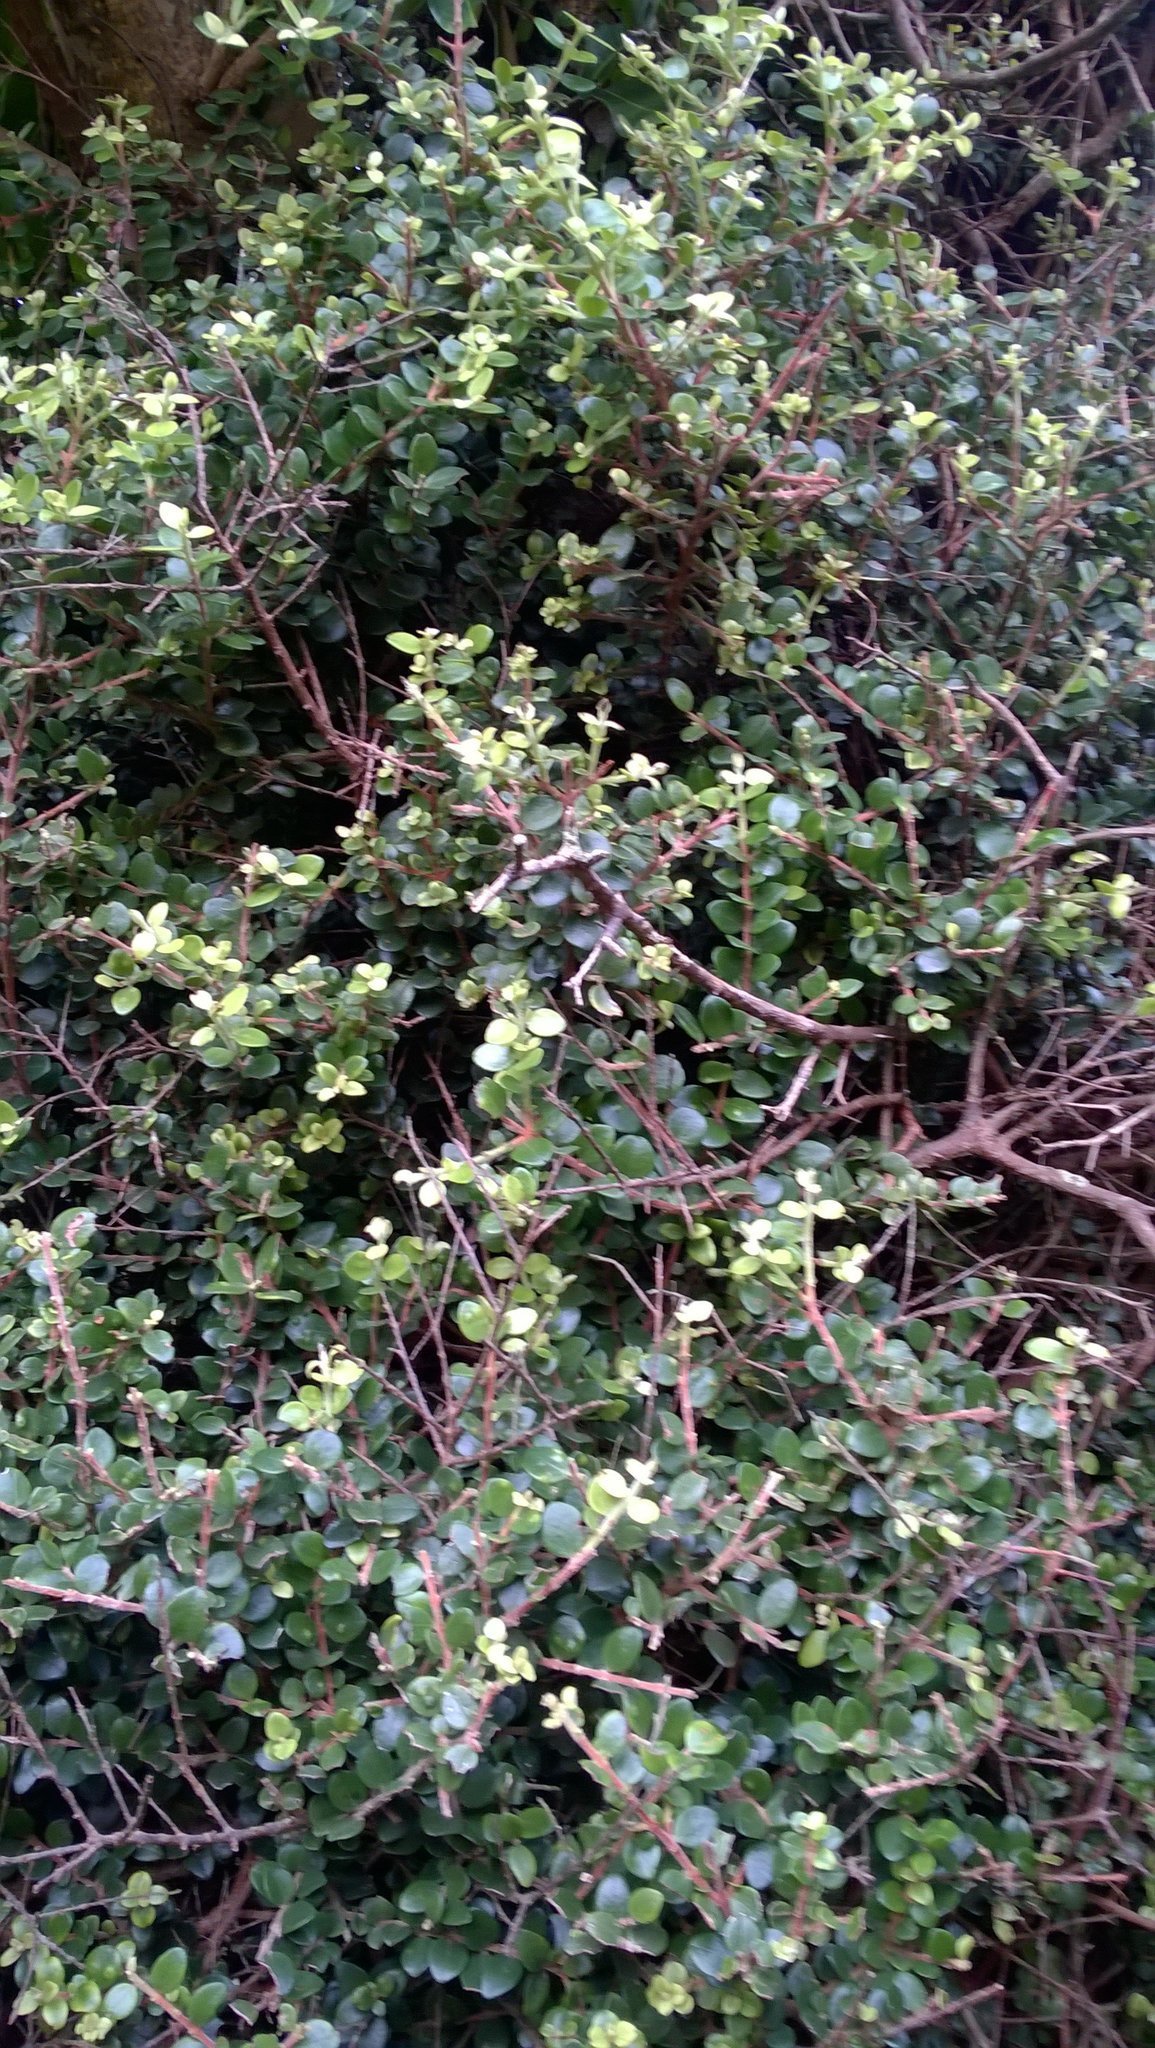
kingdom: Plantae
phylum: Tracheophyta
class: Magnoliopsida
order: Myrtales
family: Myrtaceae
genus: Metrosideros
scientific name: Metrosideros perforata
